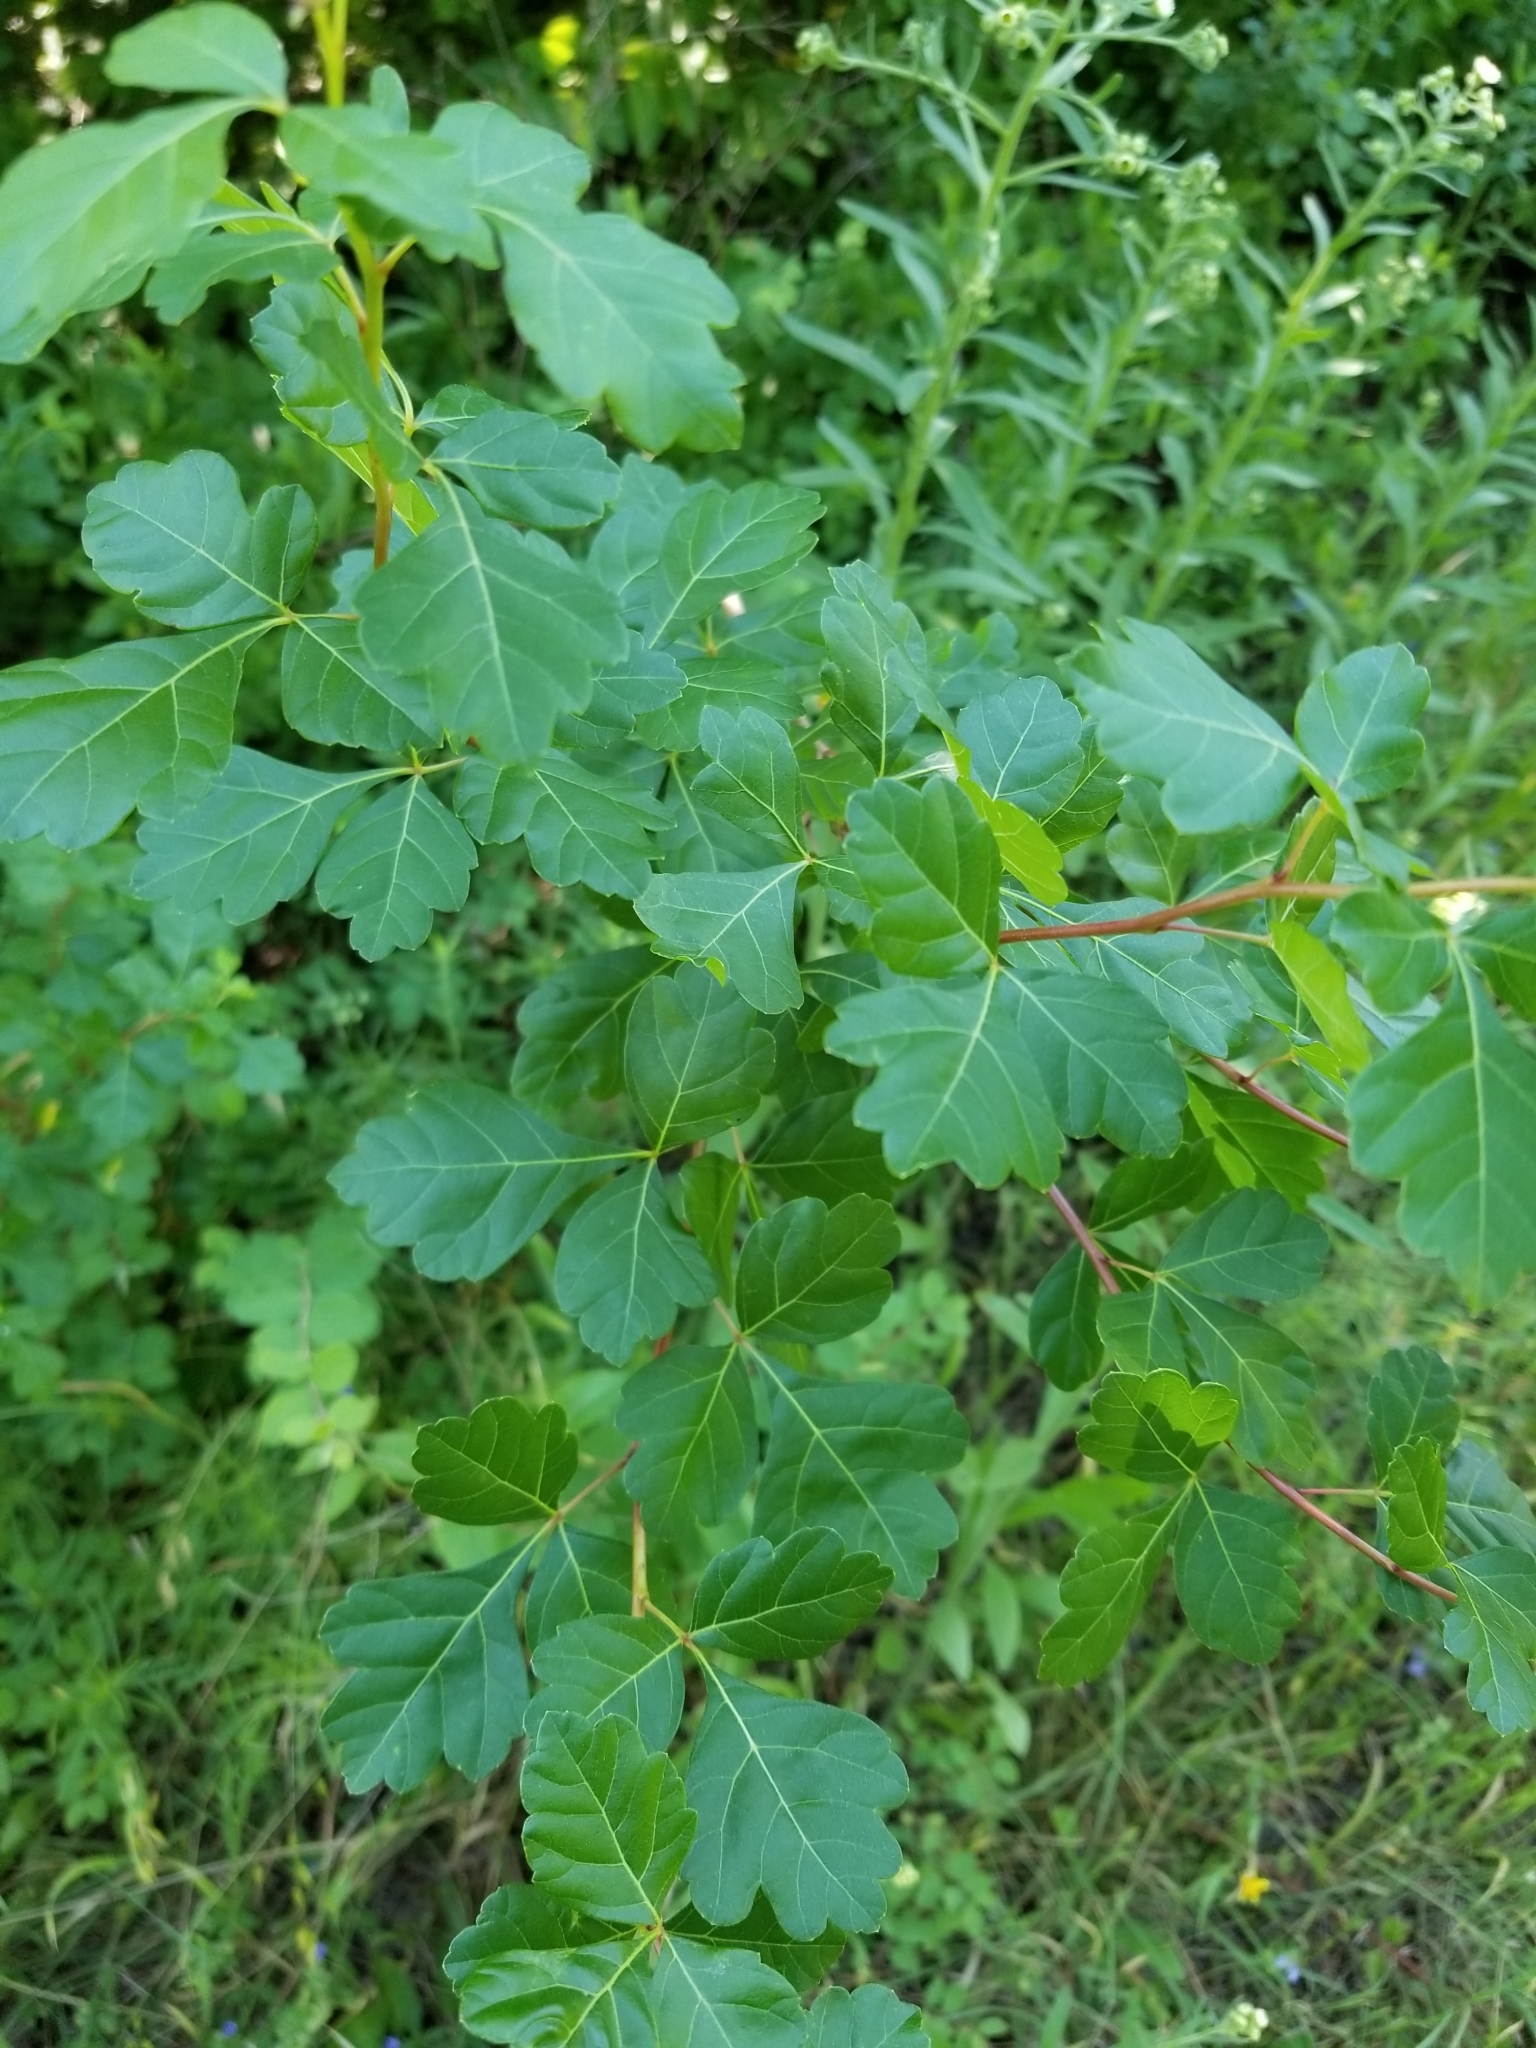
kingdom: Plantae
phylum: Tracheophyta
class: Magnoliopsida
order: Sapindales
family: Anacardiaceae
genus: Rhus
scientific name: Rhus aromatica
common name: Aromatic sumac
